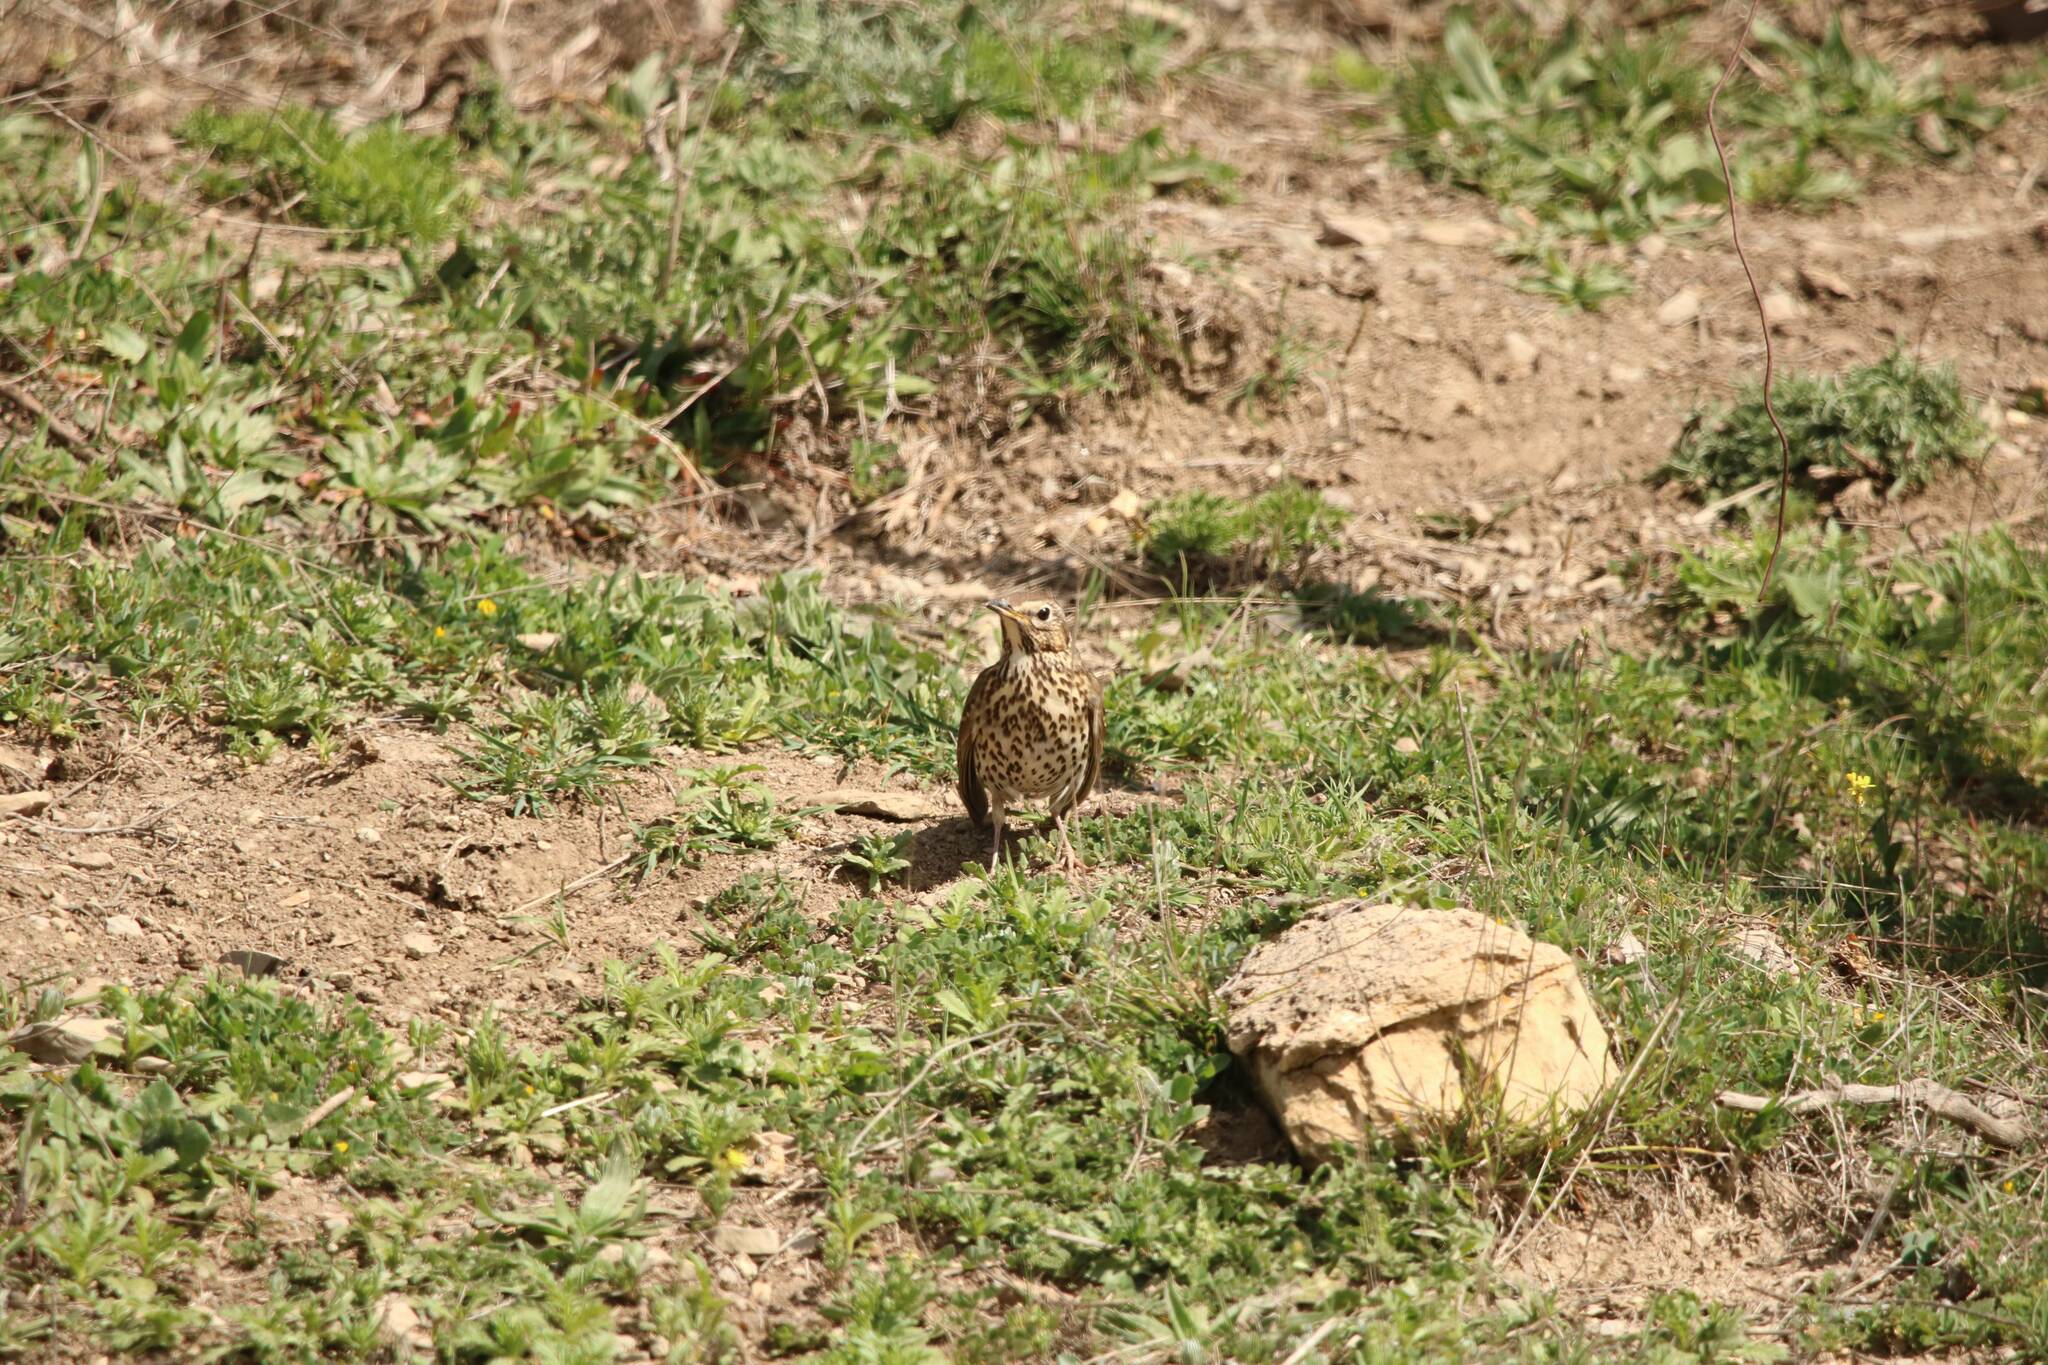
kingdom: Animalia
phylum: Chordata
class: Aves
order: Passeriformes
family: Turdidae
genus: Turdus
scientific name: Turdus philomelos
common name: Song thrush
